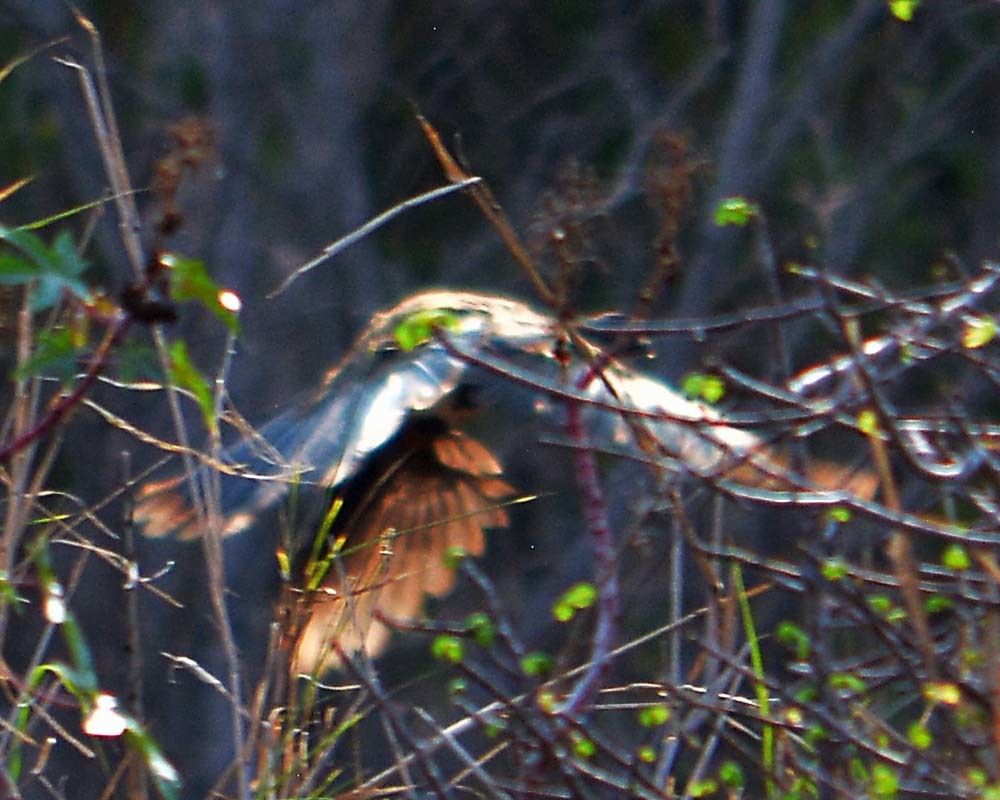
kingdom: Animalia
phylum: Chordata
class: Aves
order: Galliformes
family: Cracidae
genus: Ortalis
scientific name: Ortalis poliocephala
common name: West mexican chachalaca
